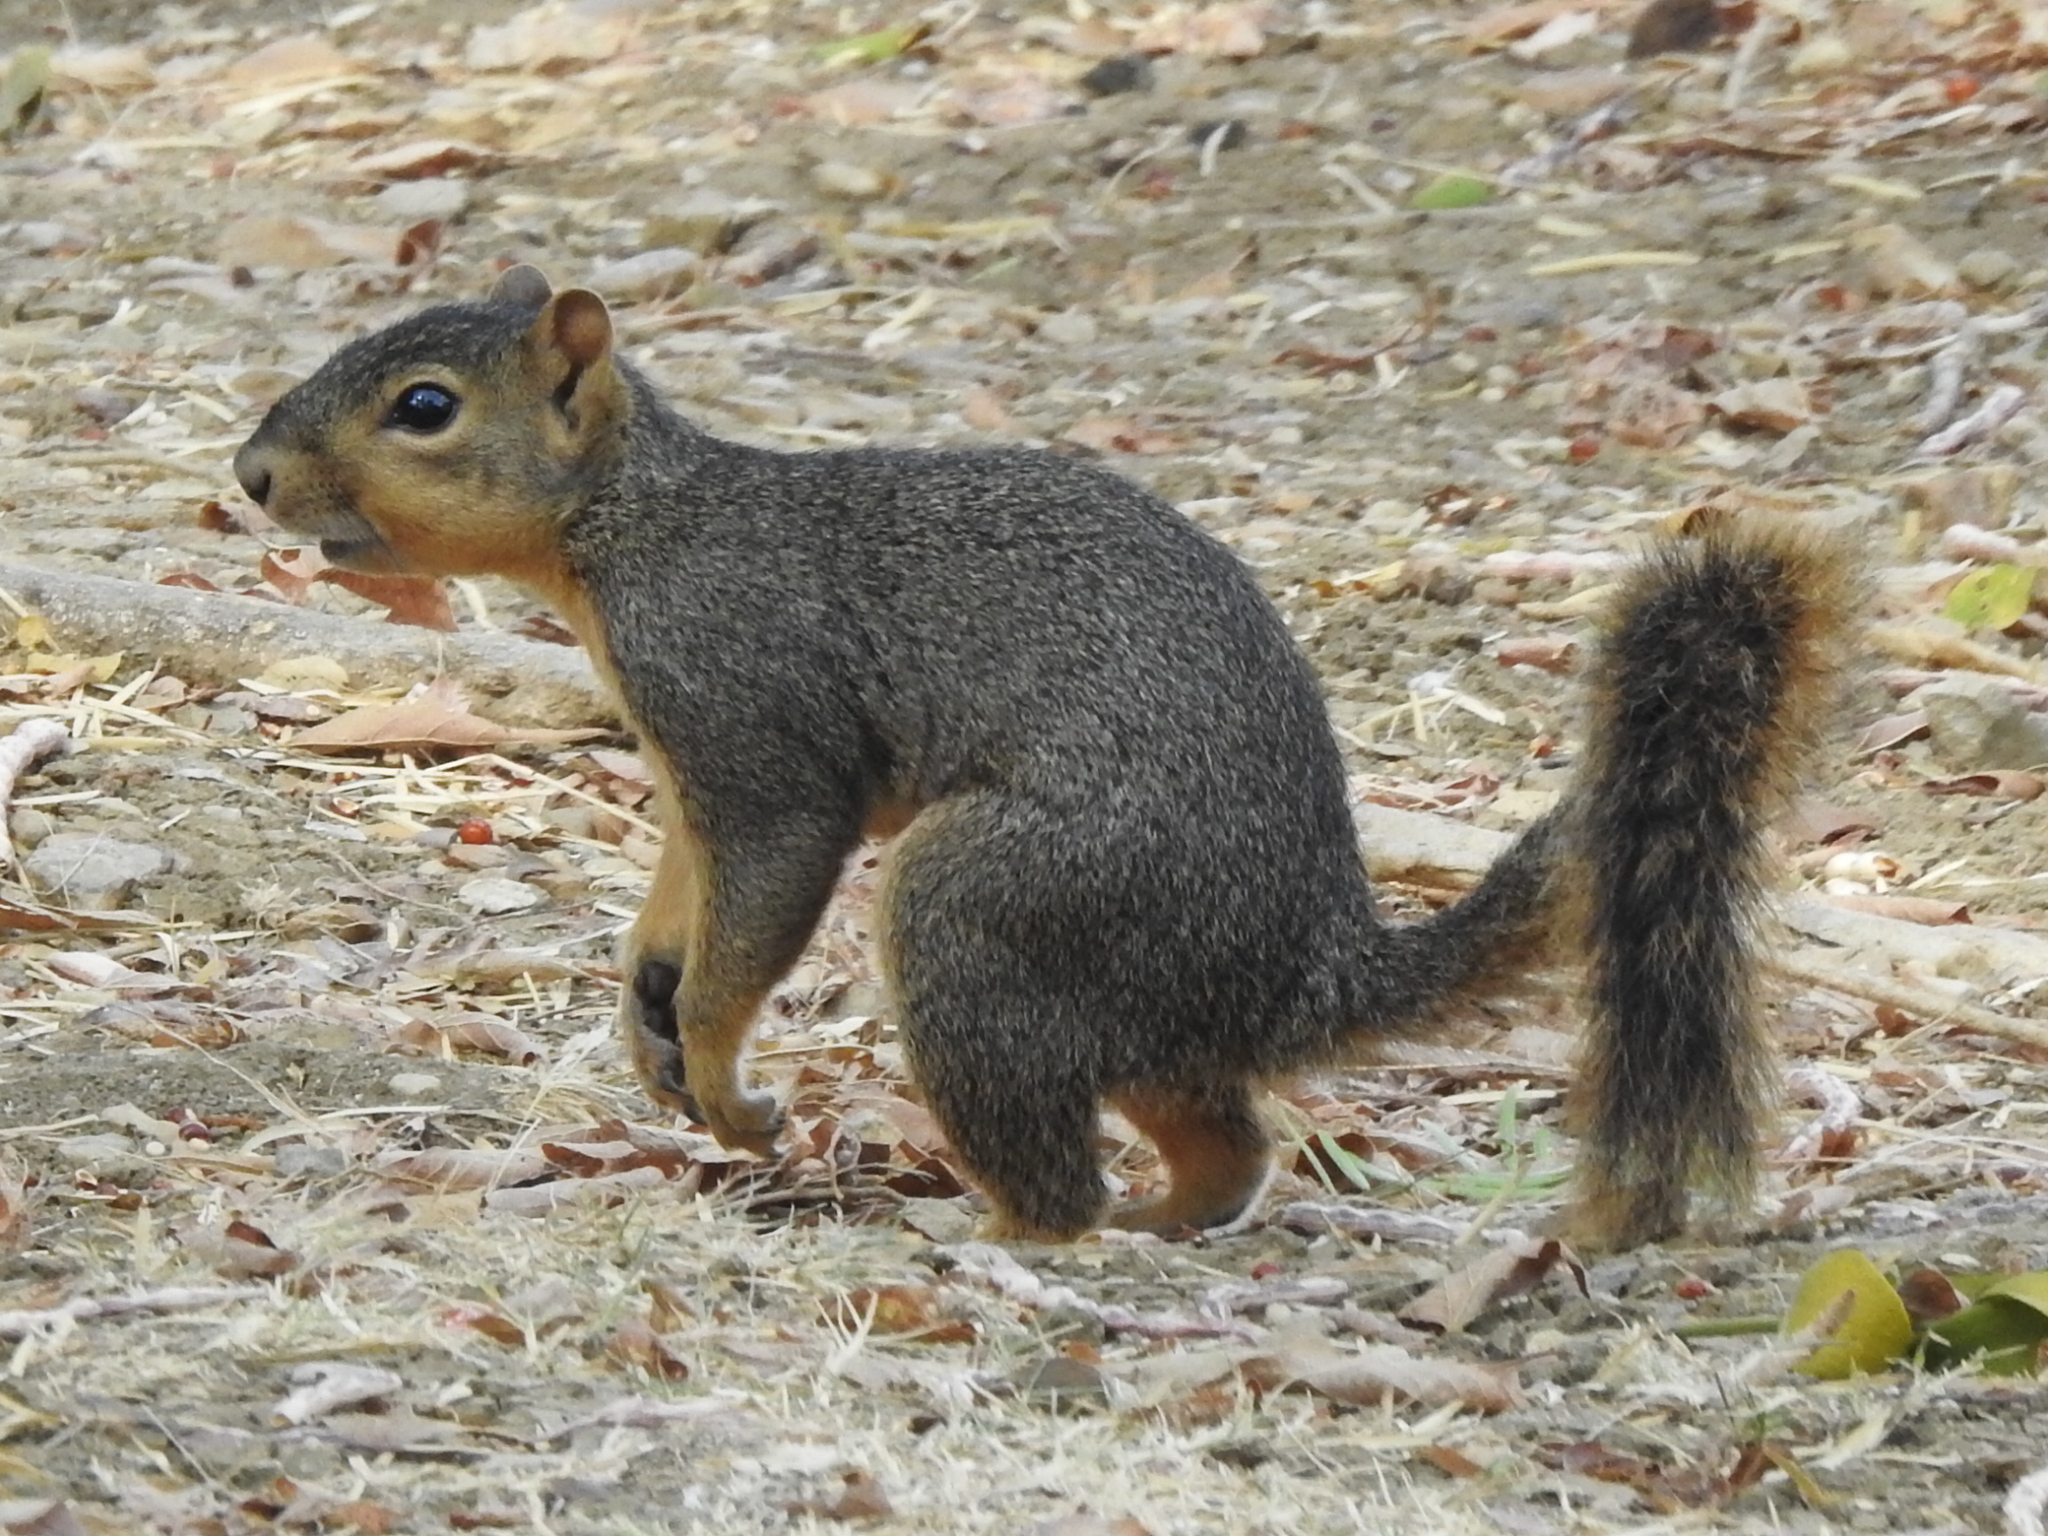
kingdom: Animalia
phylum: Chordata
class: Mammalia
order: Rodentia
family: Sciuridae
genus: Sciurus
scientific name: Sciurus niger
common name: Fox squirrel
